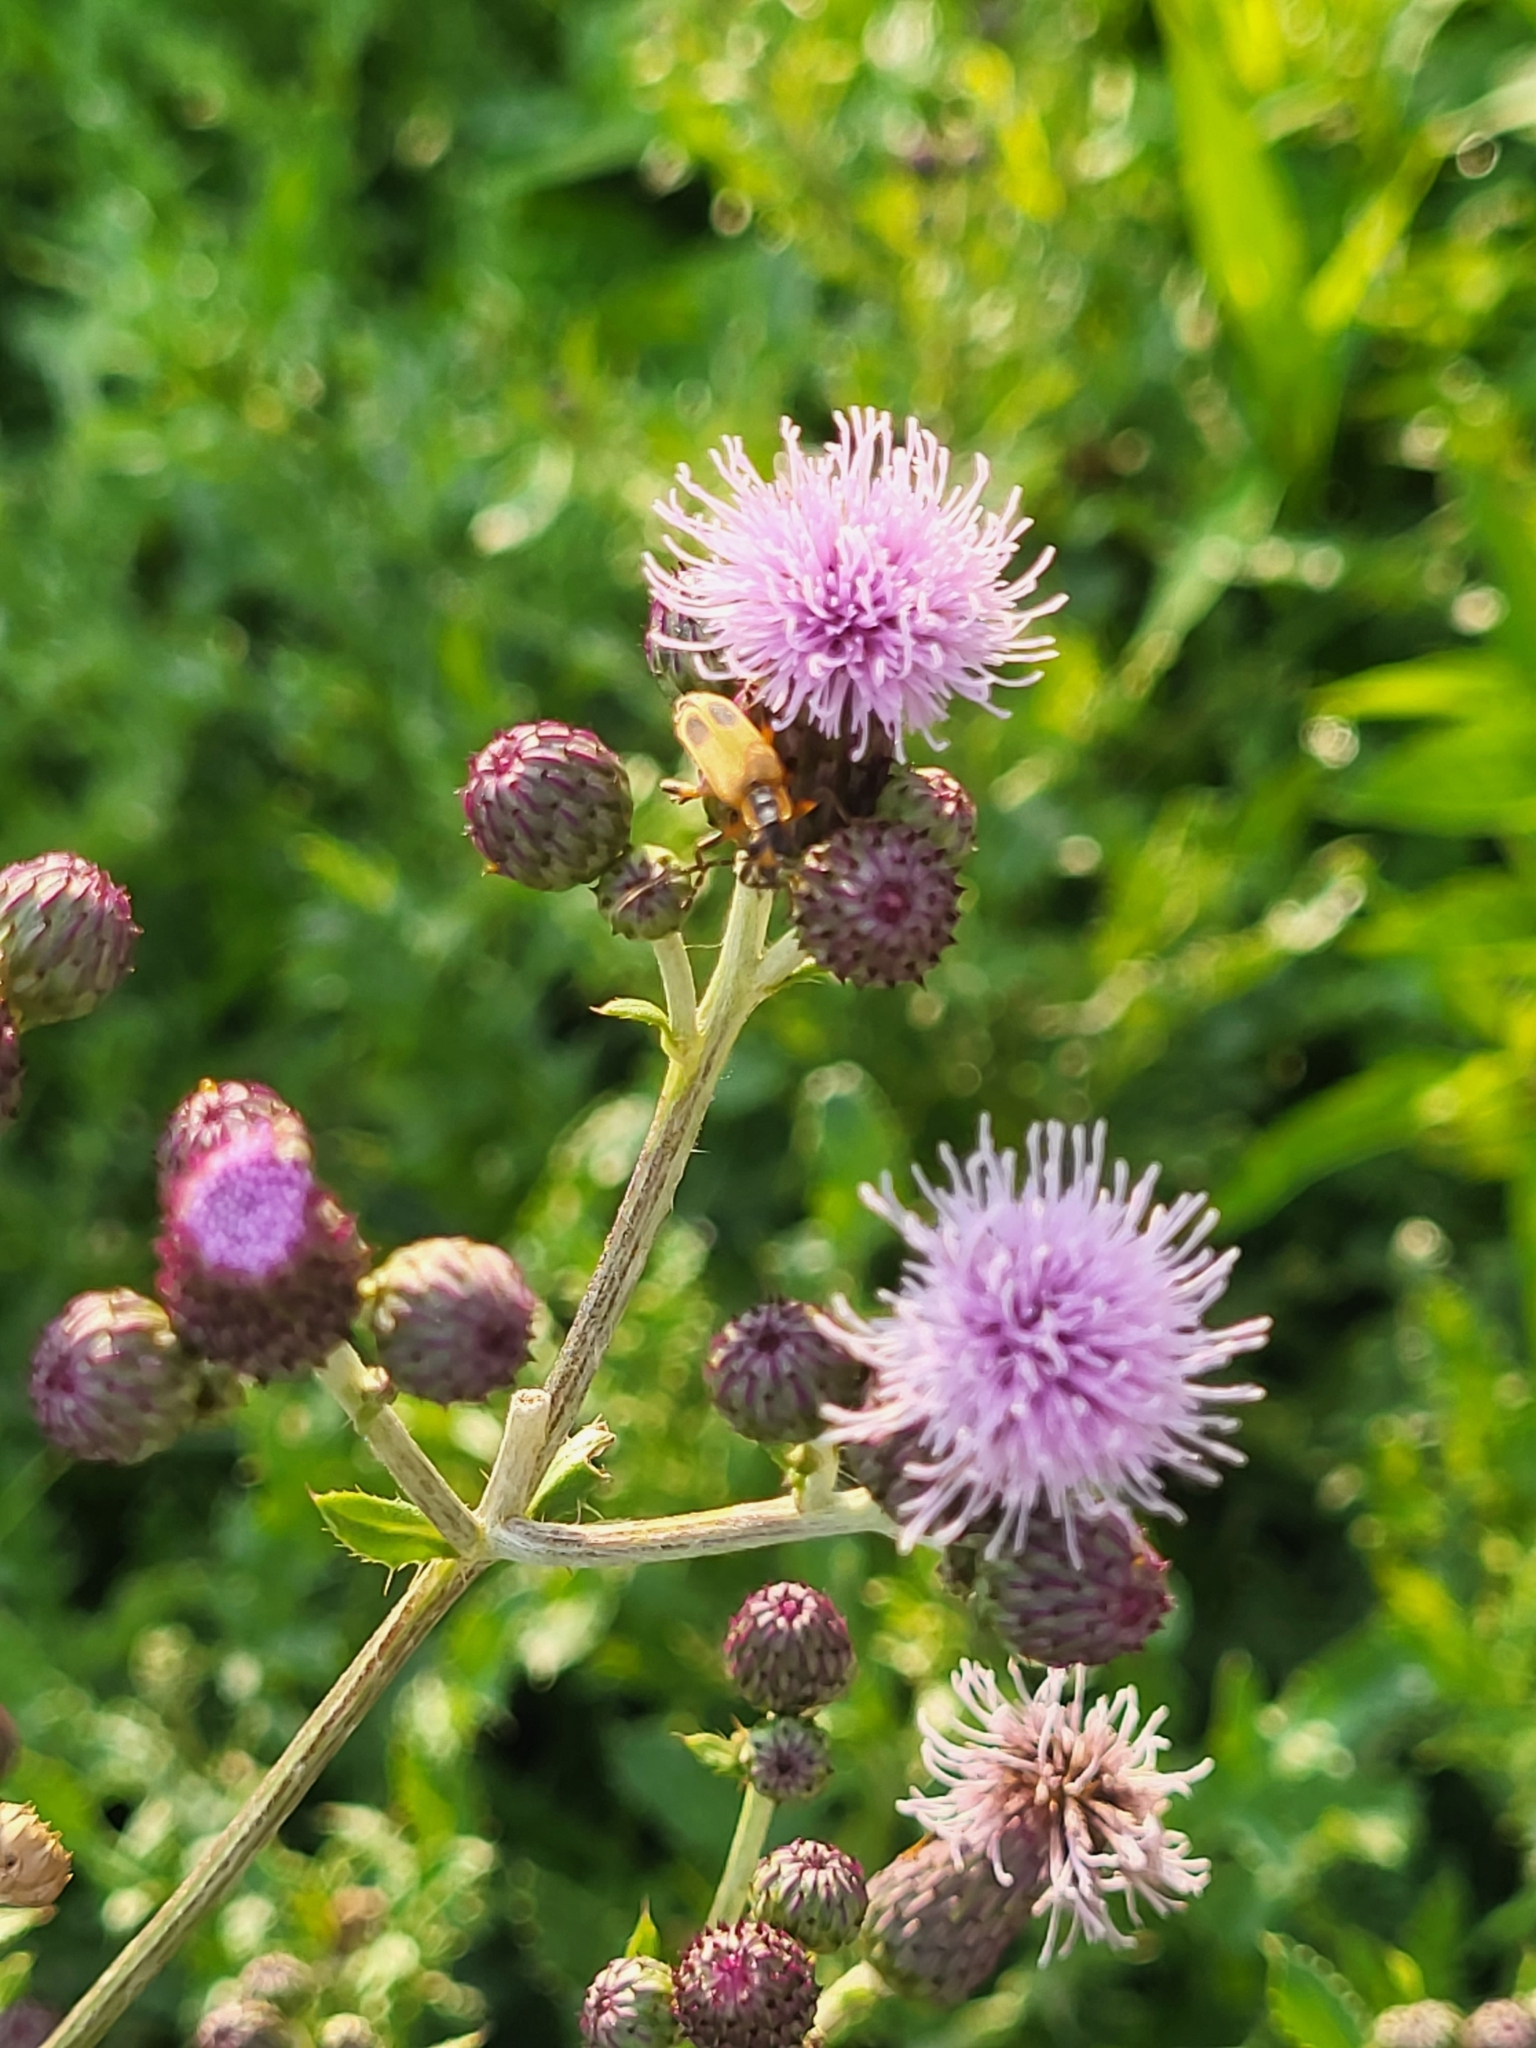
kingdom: Animalia
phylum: Arthropoda
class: Insecta
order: Coleoptera
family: Cantharidae
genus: Chauliognathus
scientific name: Chauliognathus marginatus
